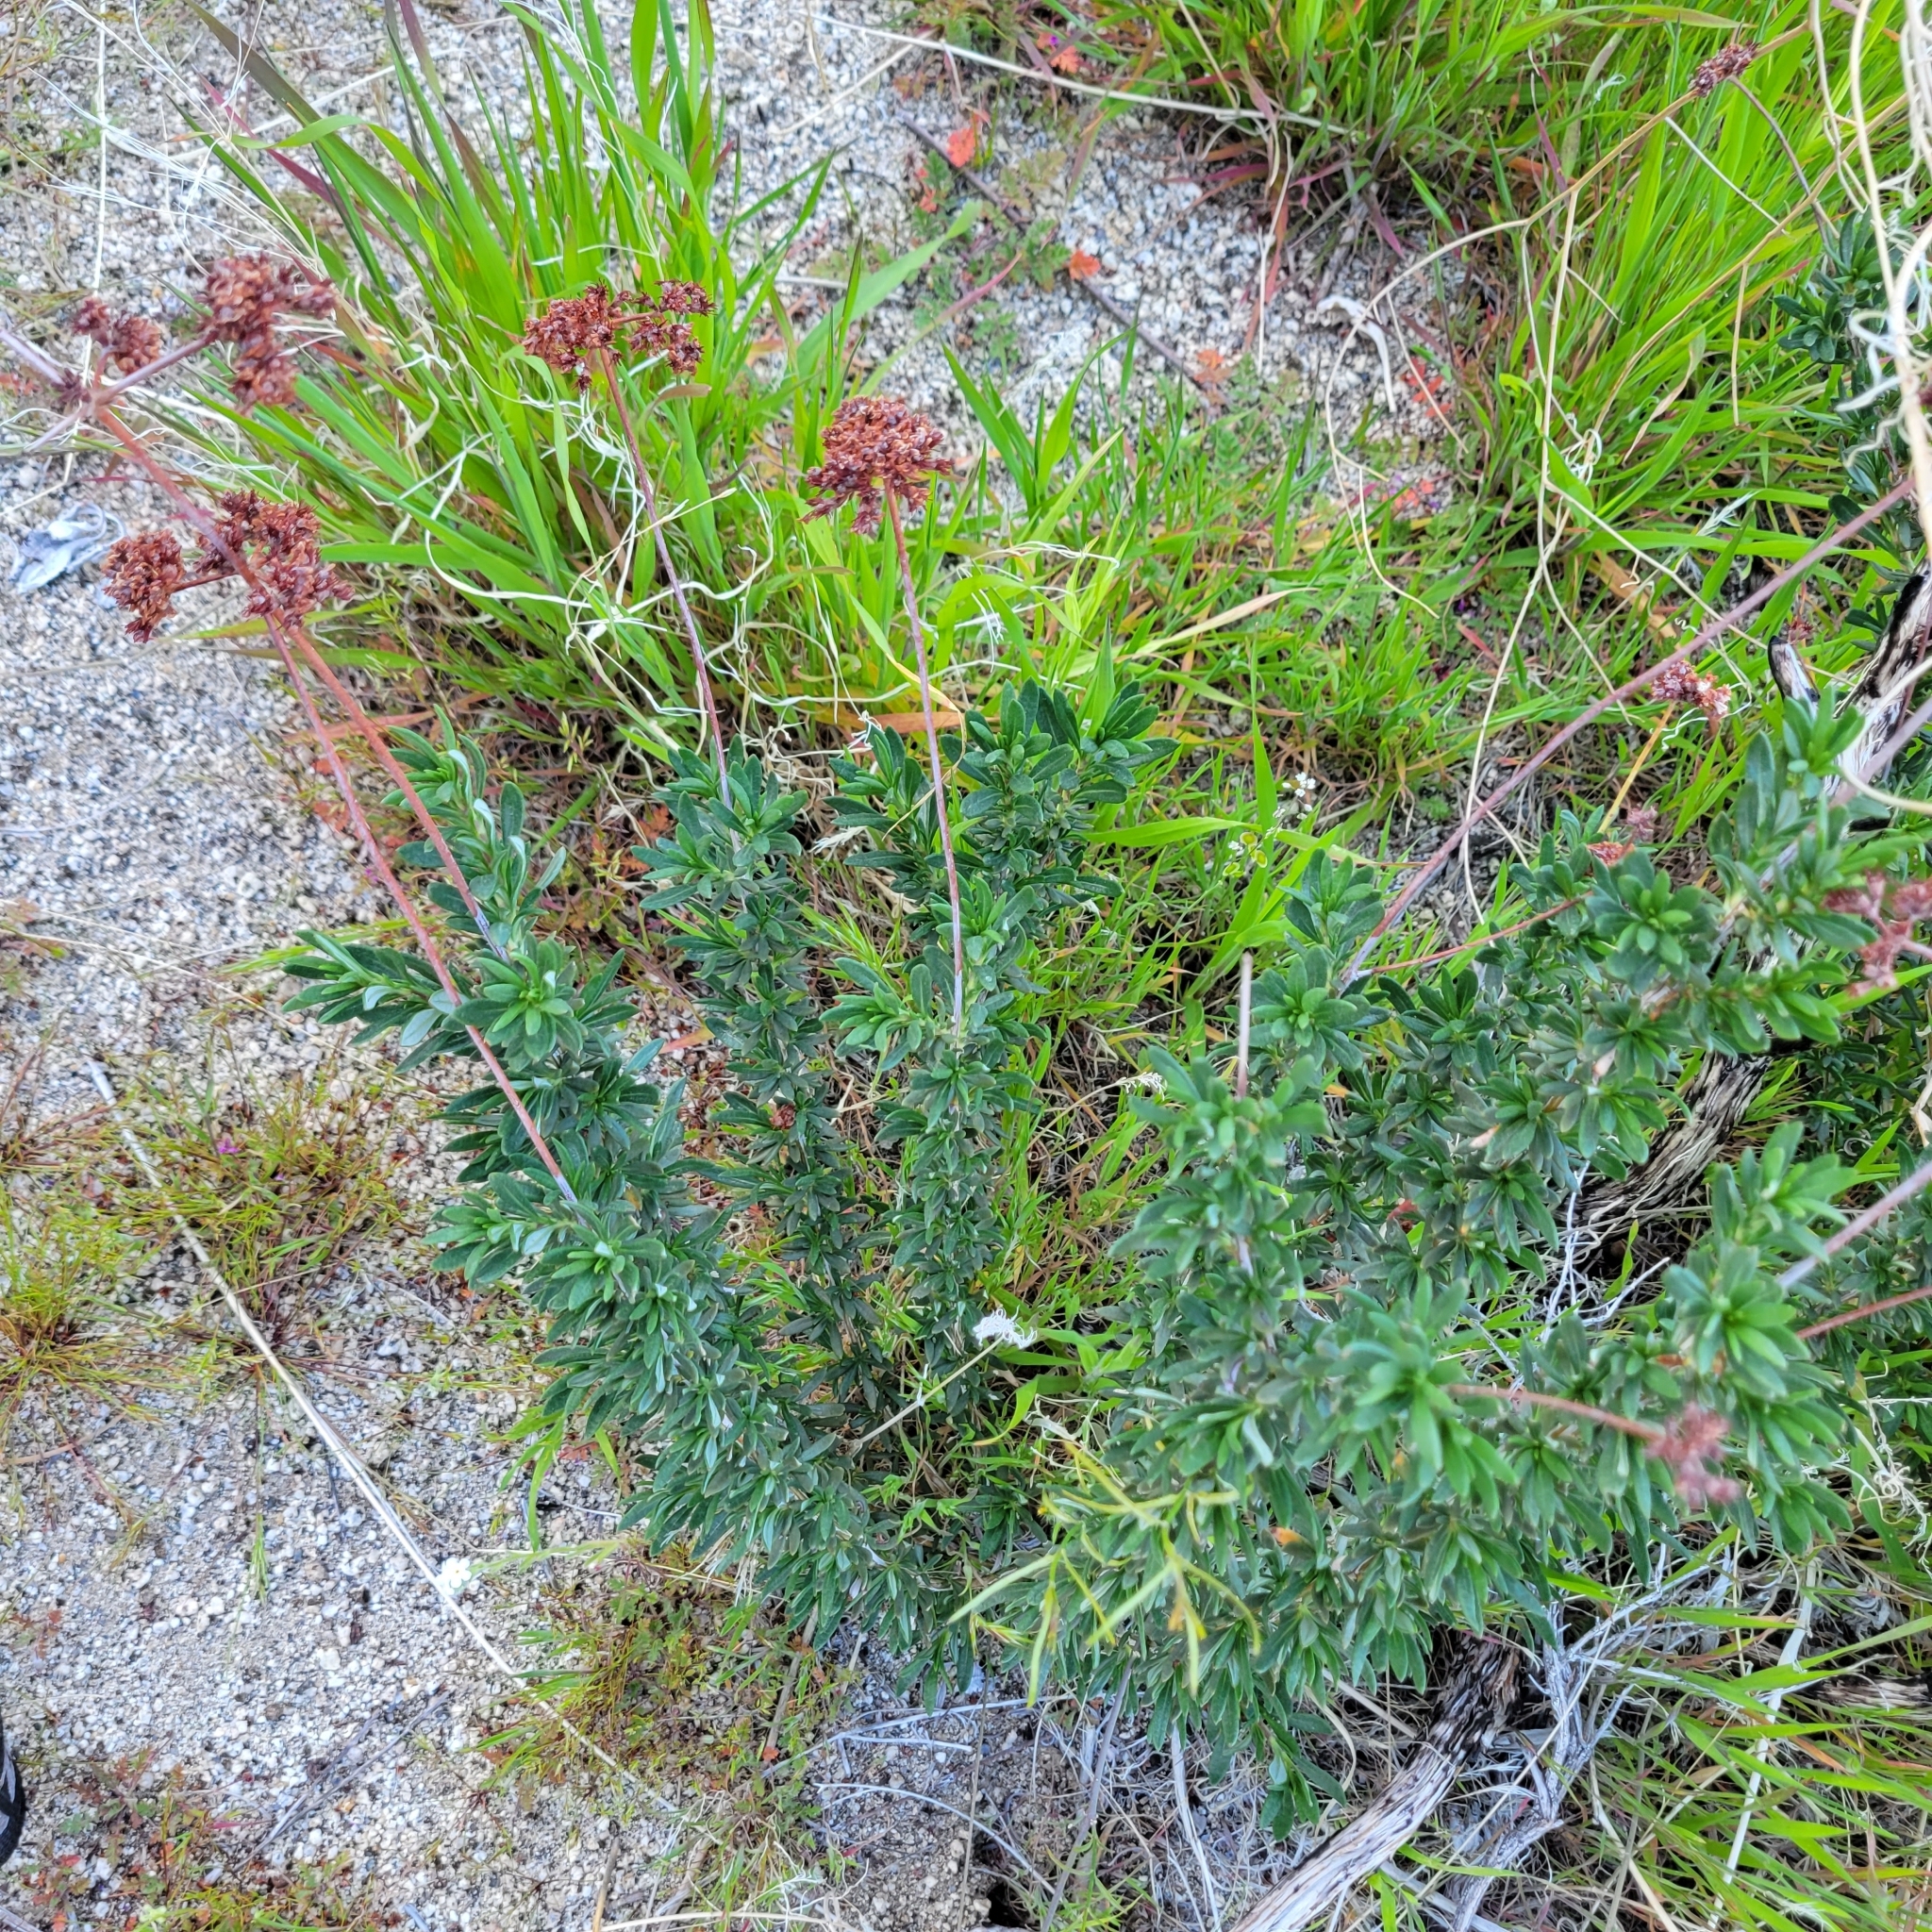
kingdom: Plantae
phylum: Tracheophyta
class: Magnoliopsida
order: Caryophyllales
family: Polygonaceae
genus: Eriogonum
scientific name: Eriogonum fasciculatum
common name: California wild buckwheat
